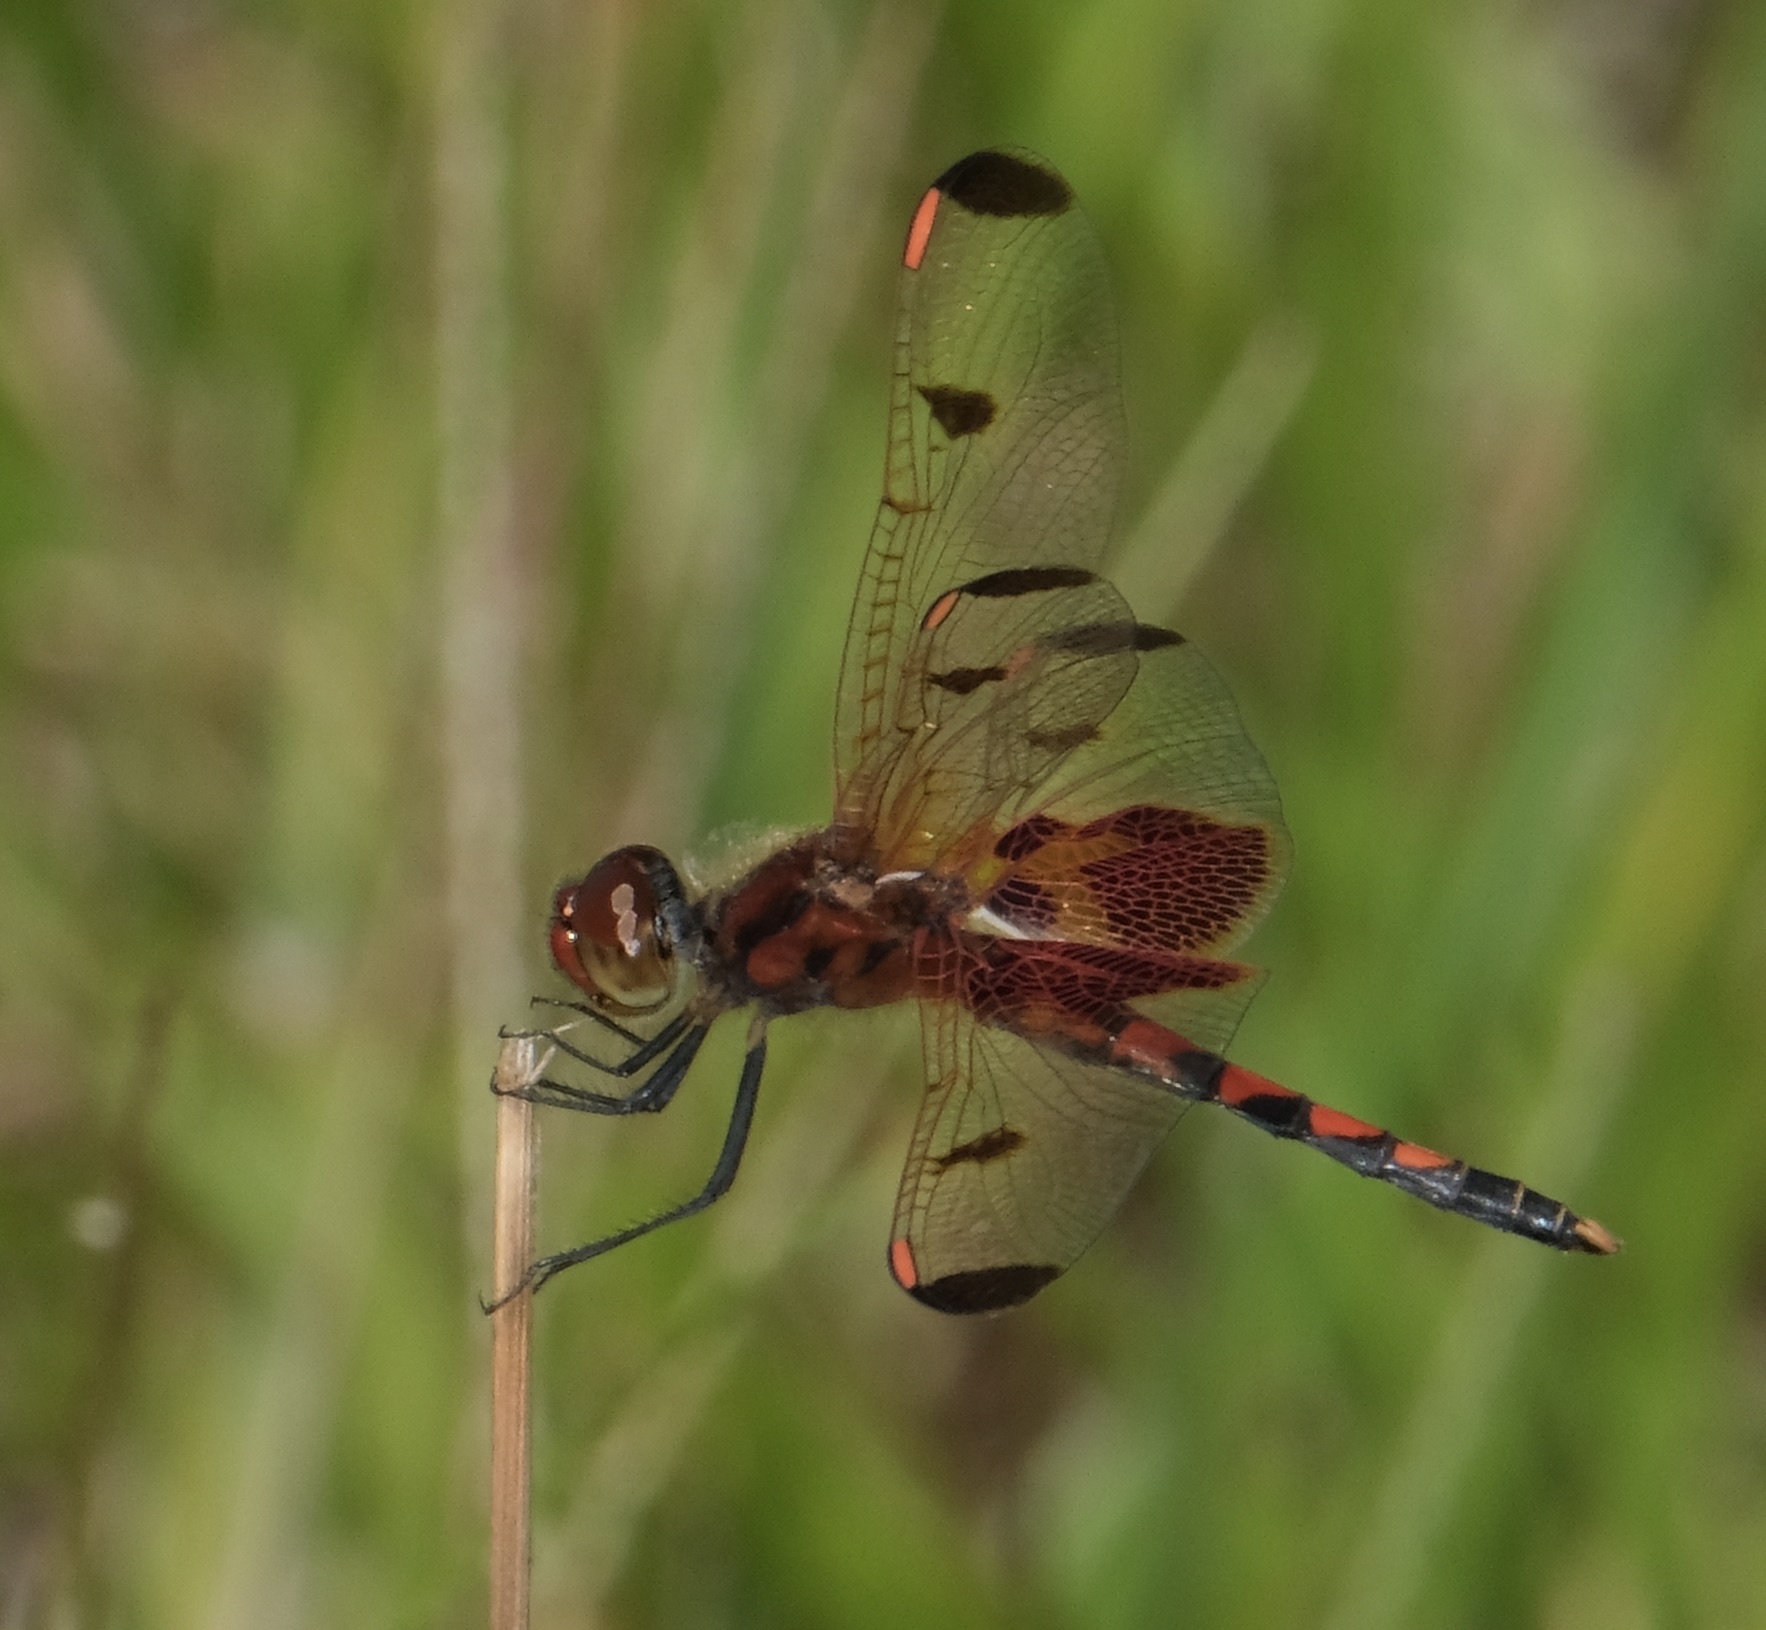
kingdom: Animalia
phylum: Arthropoda
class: Insecta
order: Odonata
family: Libellulidae
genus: Celithemis
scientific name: Celithemis elisa
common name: Calico pennant
